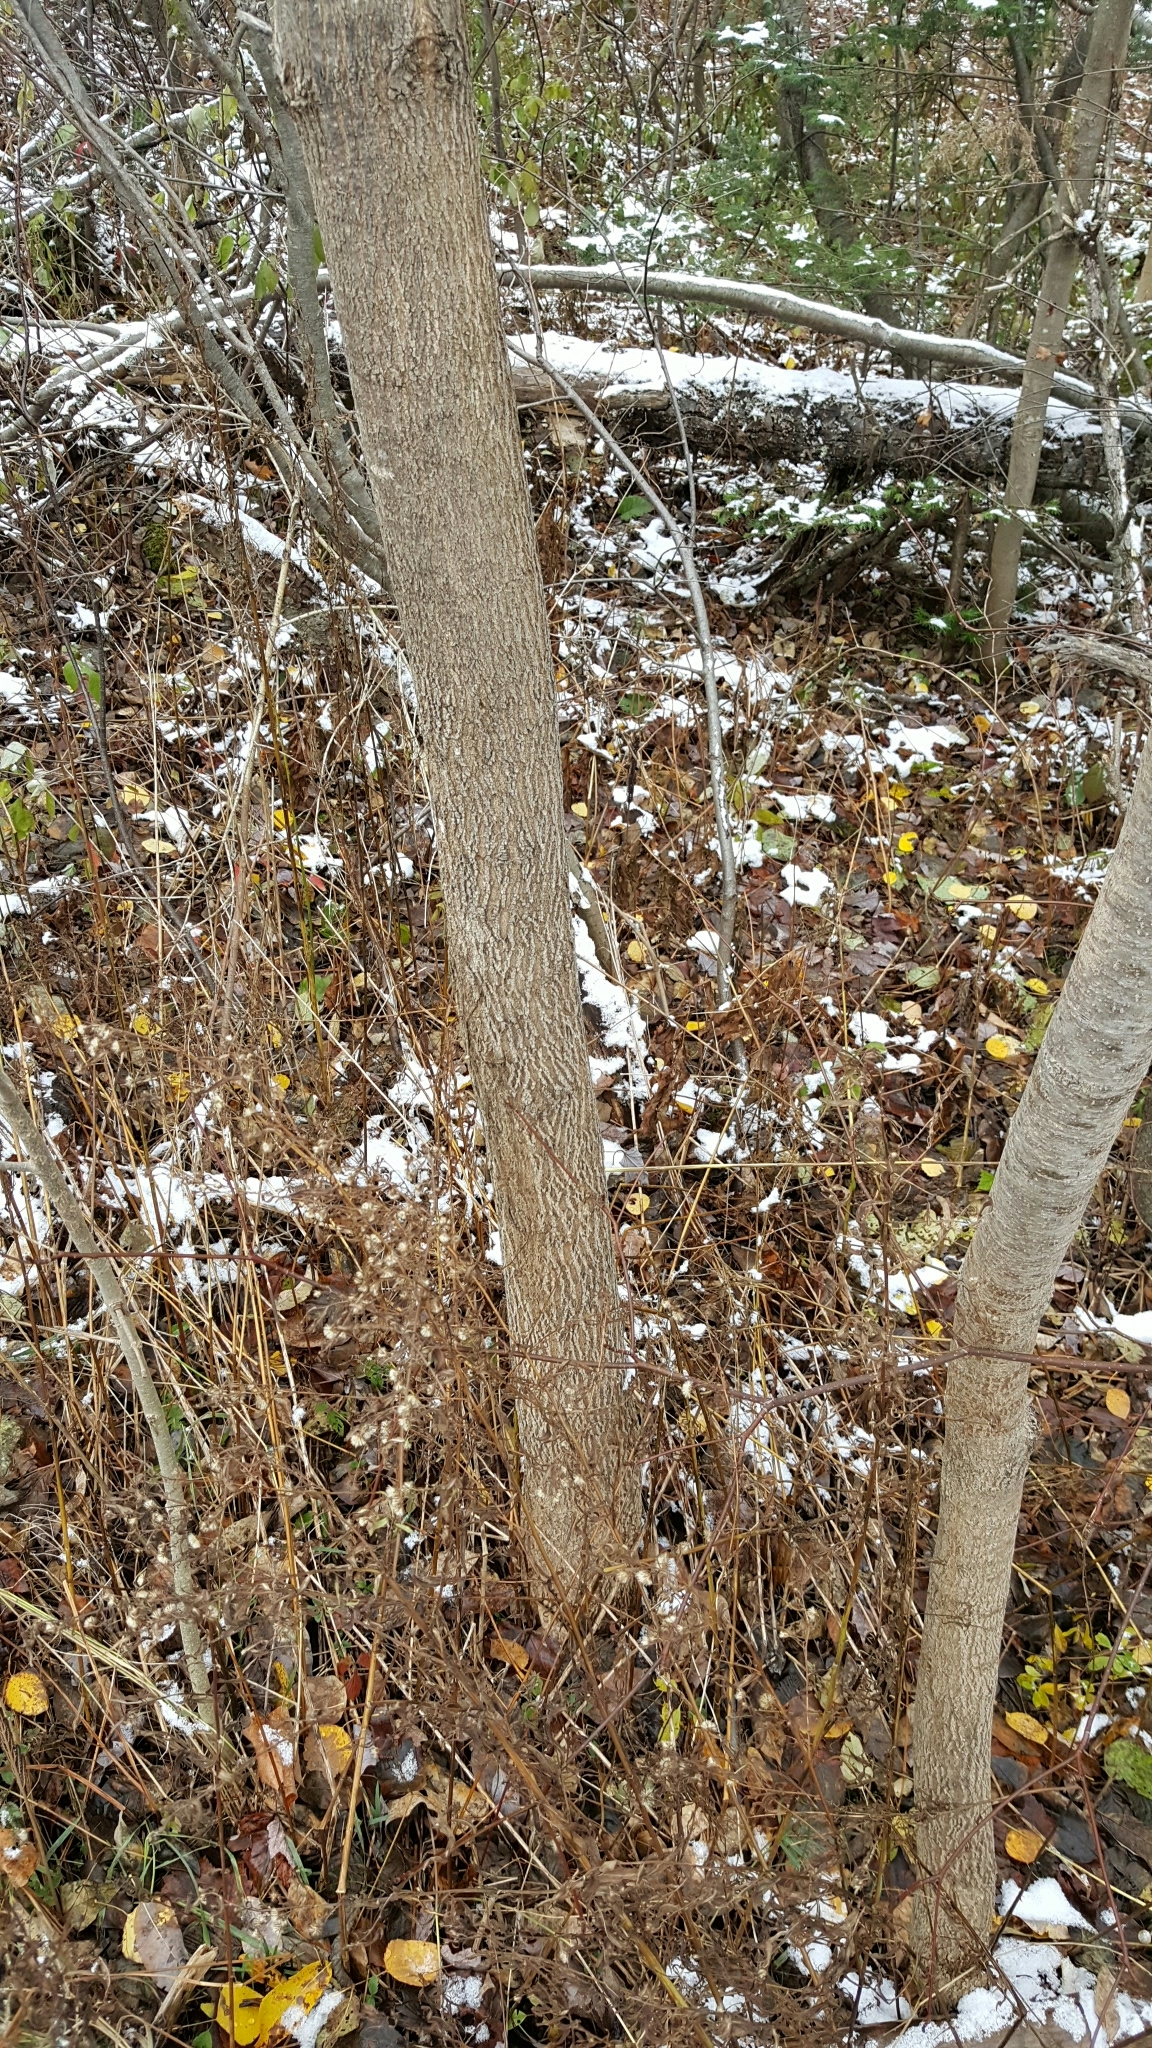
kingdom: Plantae
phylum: Tracheophyta
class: Magnoliopsida
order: Lamiales
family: Oleaceae
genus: Fraxinus
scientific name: Fraxinus americana
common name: White ash
